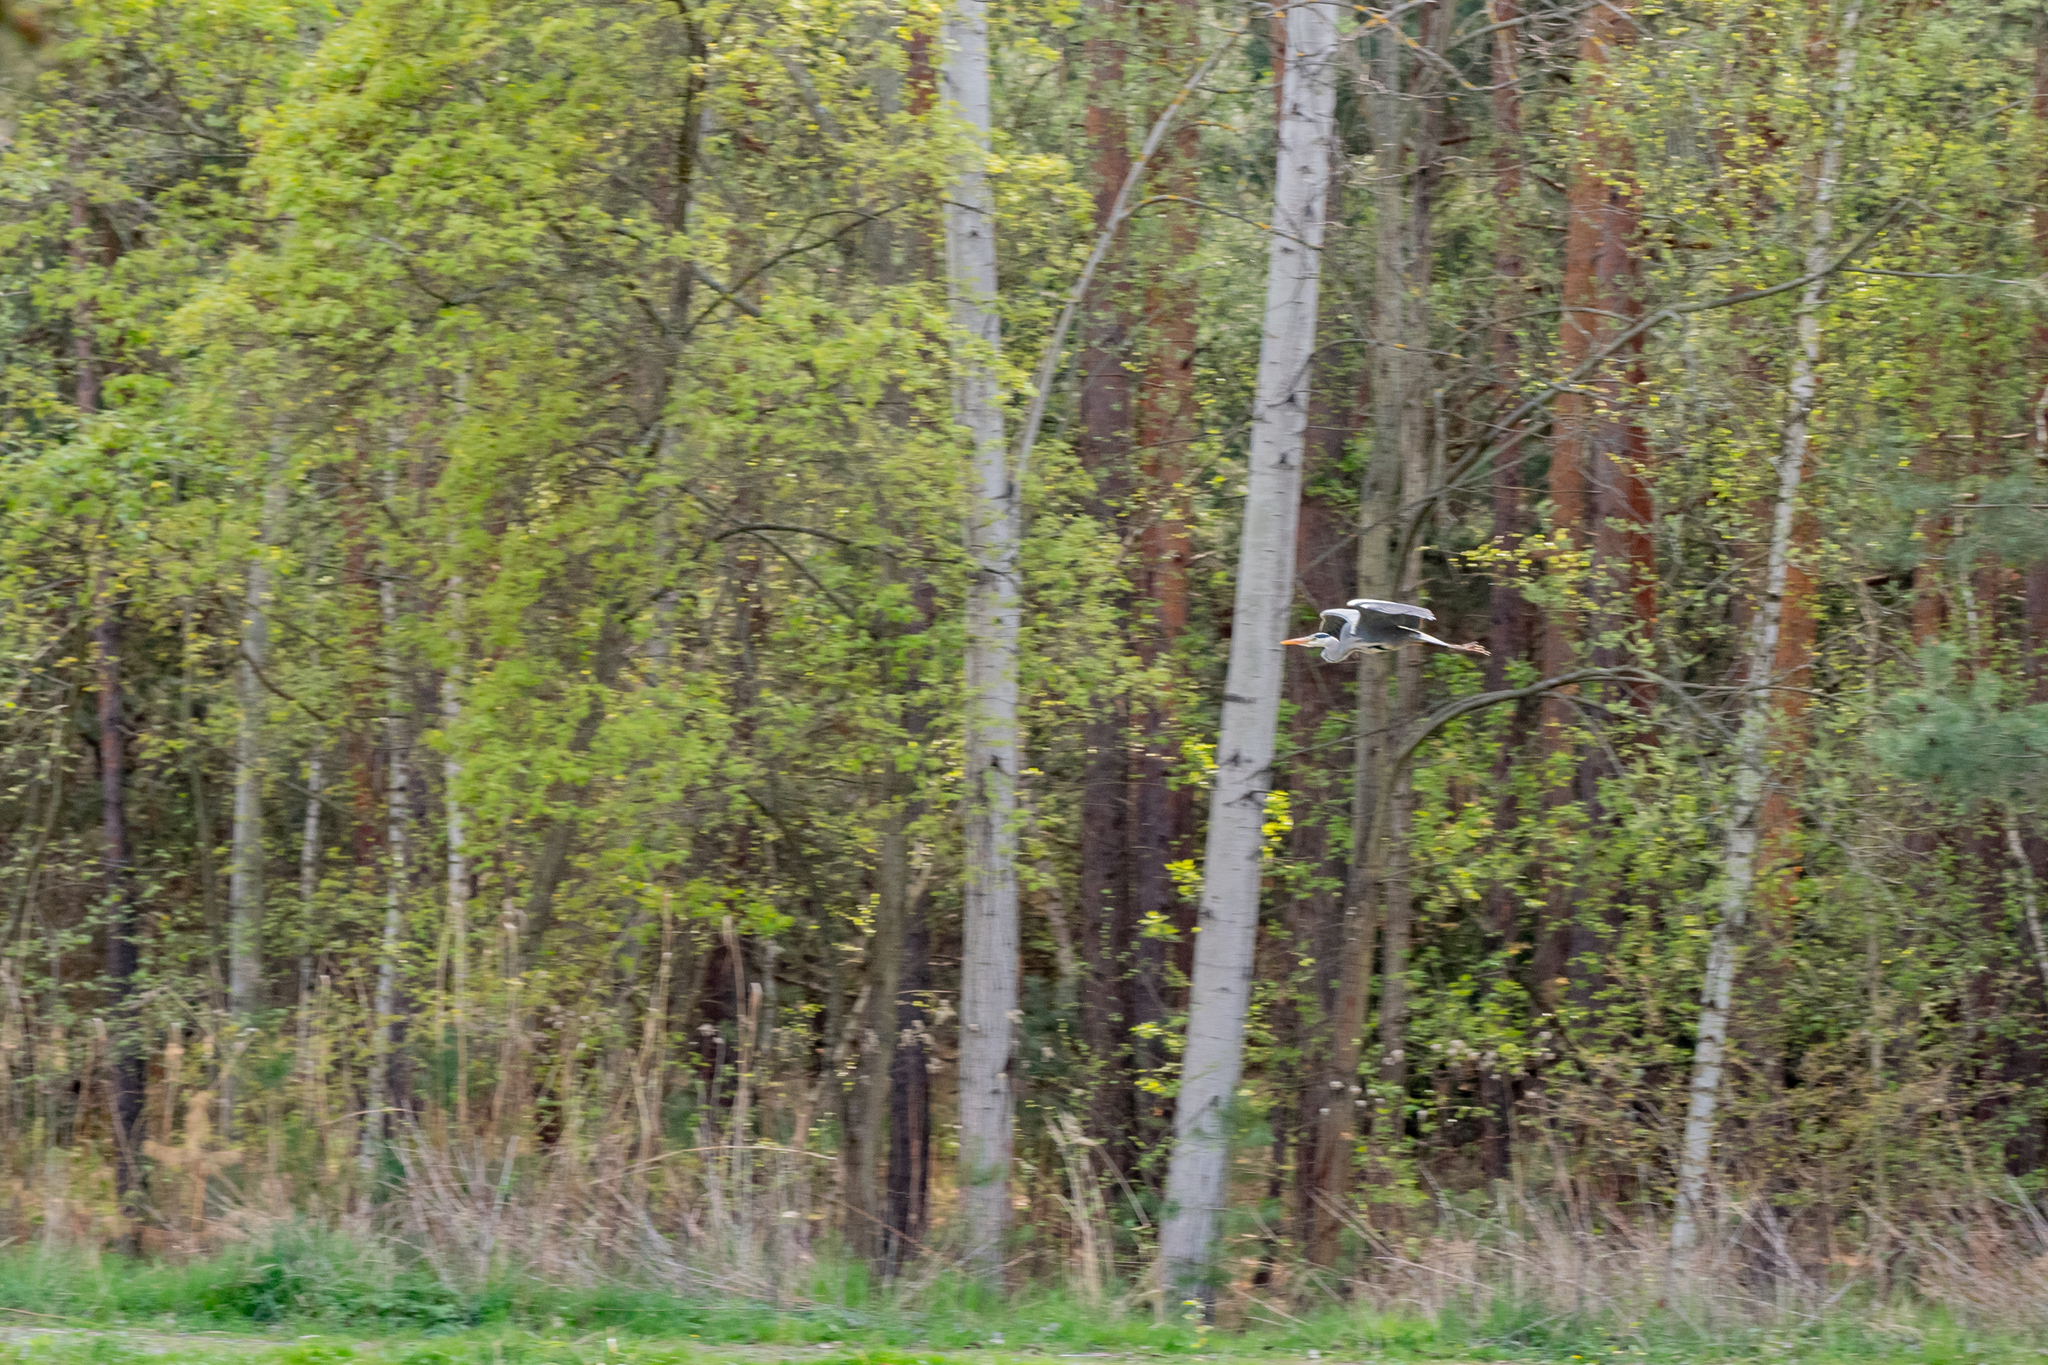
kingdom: Animalia
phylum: Chordata
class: Aves
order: Pelecaniformes
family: Ardeidae
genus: Ardea
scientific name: Ardea cinerea
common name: Grey heron
